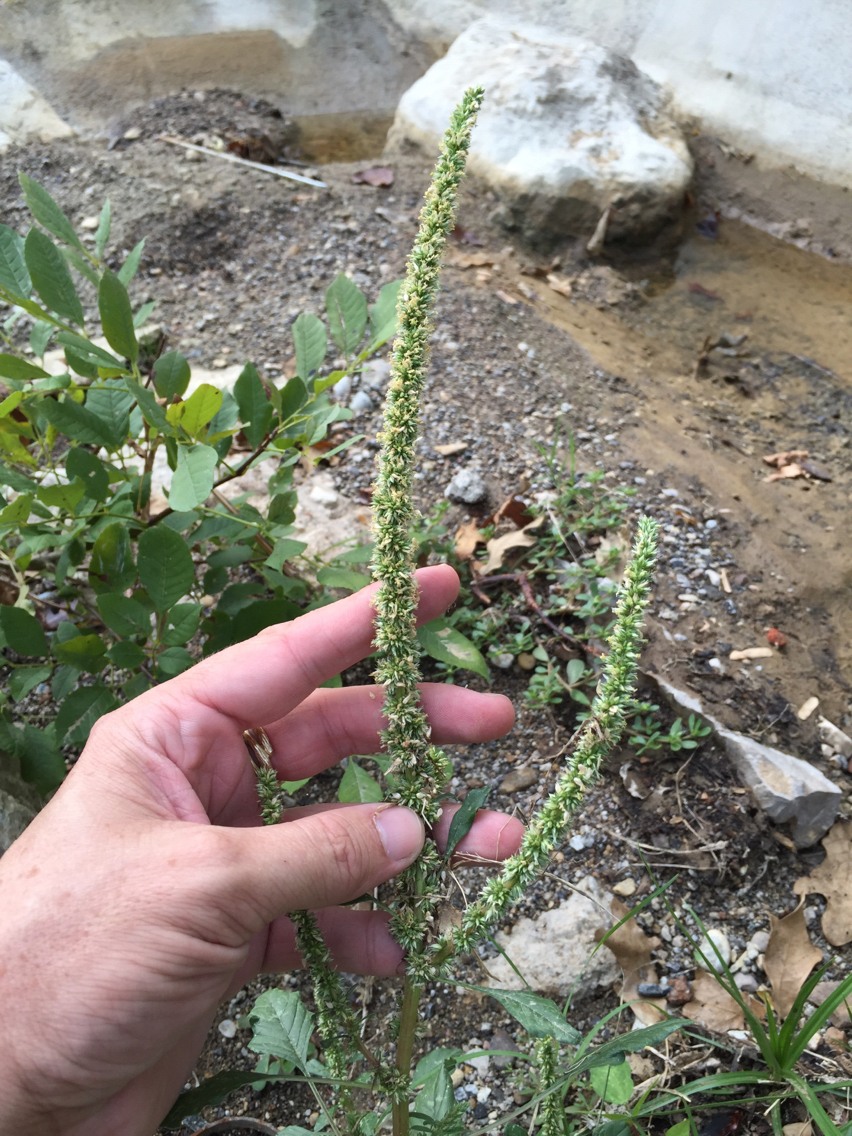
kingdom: Plantae
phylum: Tracheophyta
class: Magnoliopsida
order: Caryophyllales
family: Amaranthaceae
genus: Amaranthus
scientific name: Amaranthus palmeri
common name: Dioecious amaranth
